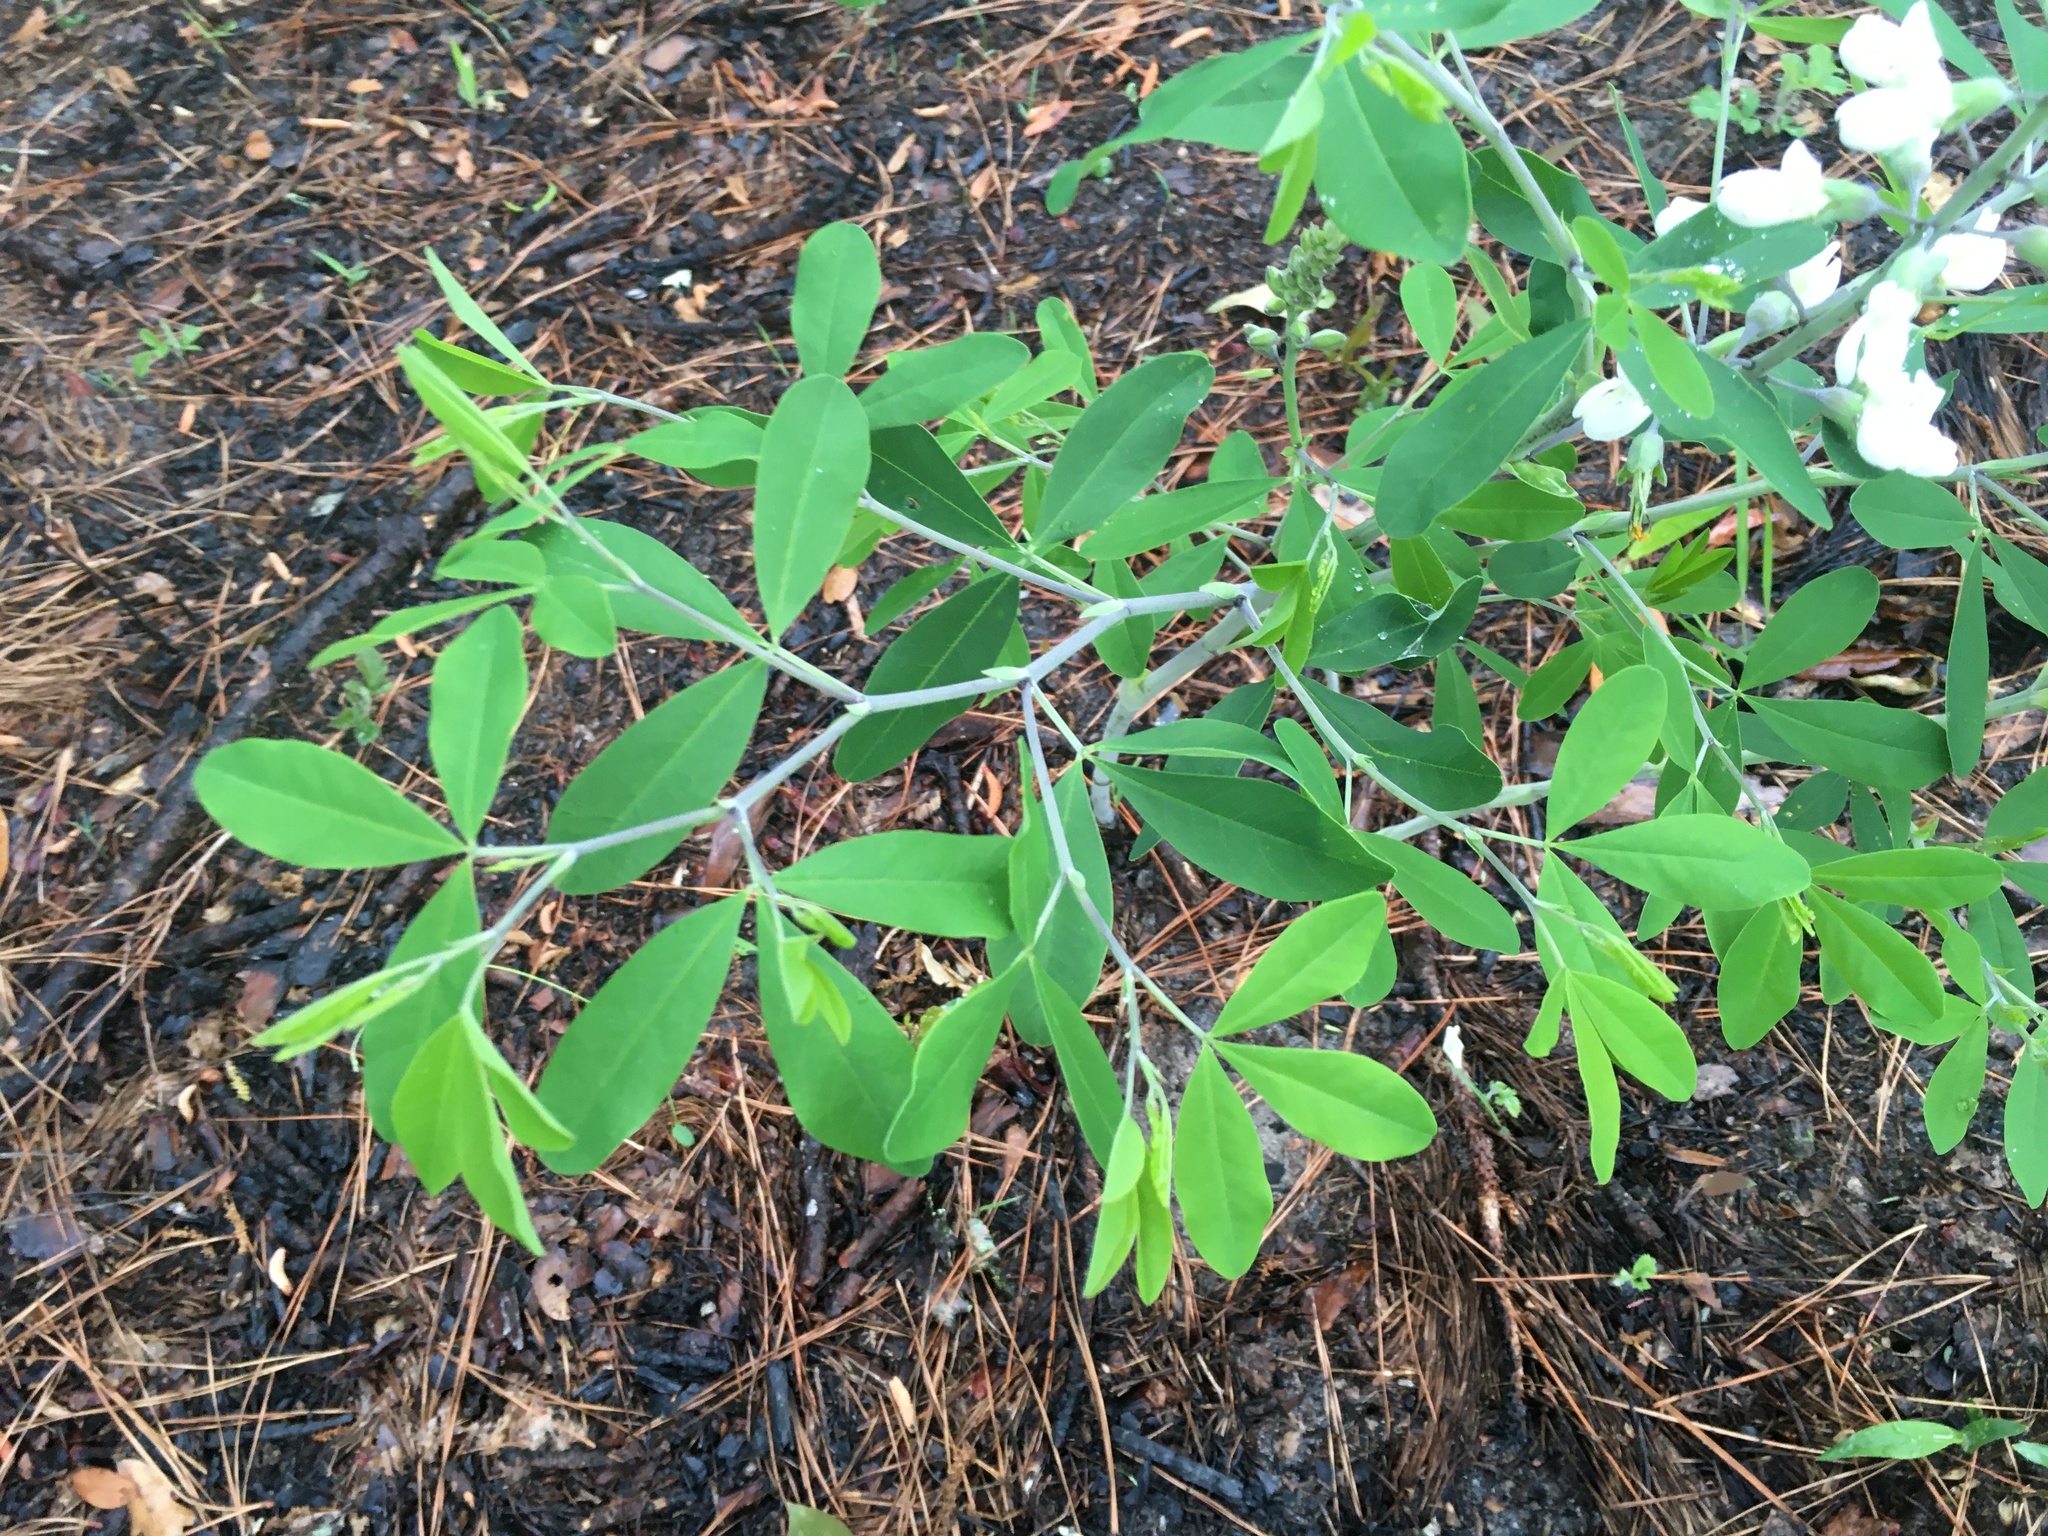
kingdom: Plantae
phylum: Tracheophyta
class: Magnoliopsida
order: Fabales
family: Fabaceae
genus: Baptisia
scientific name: Baptisia alba
